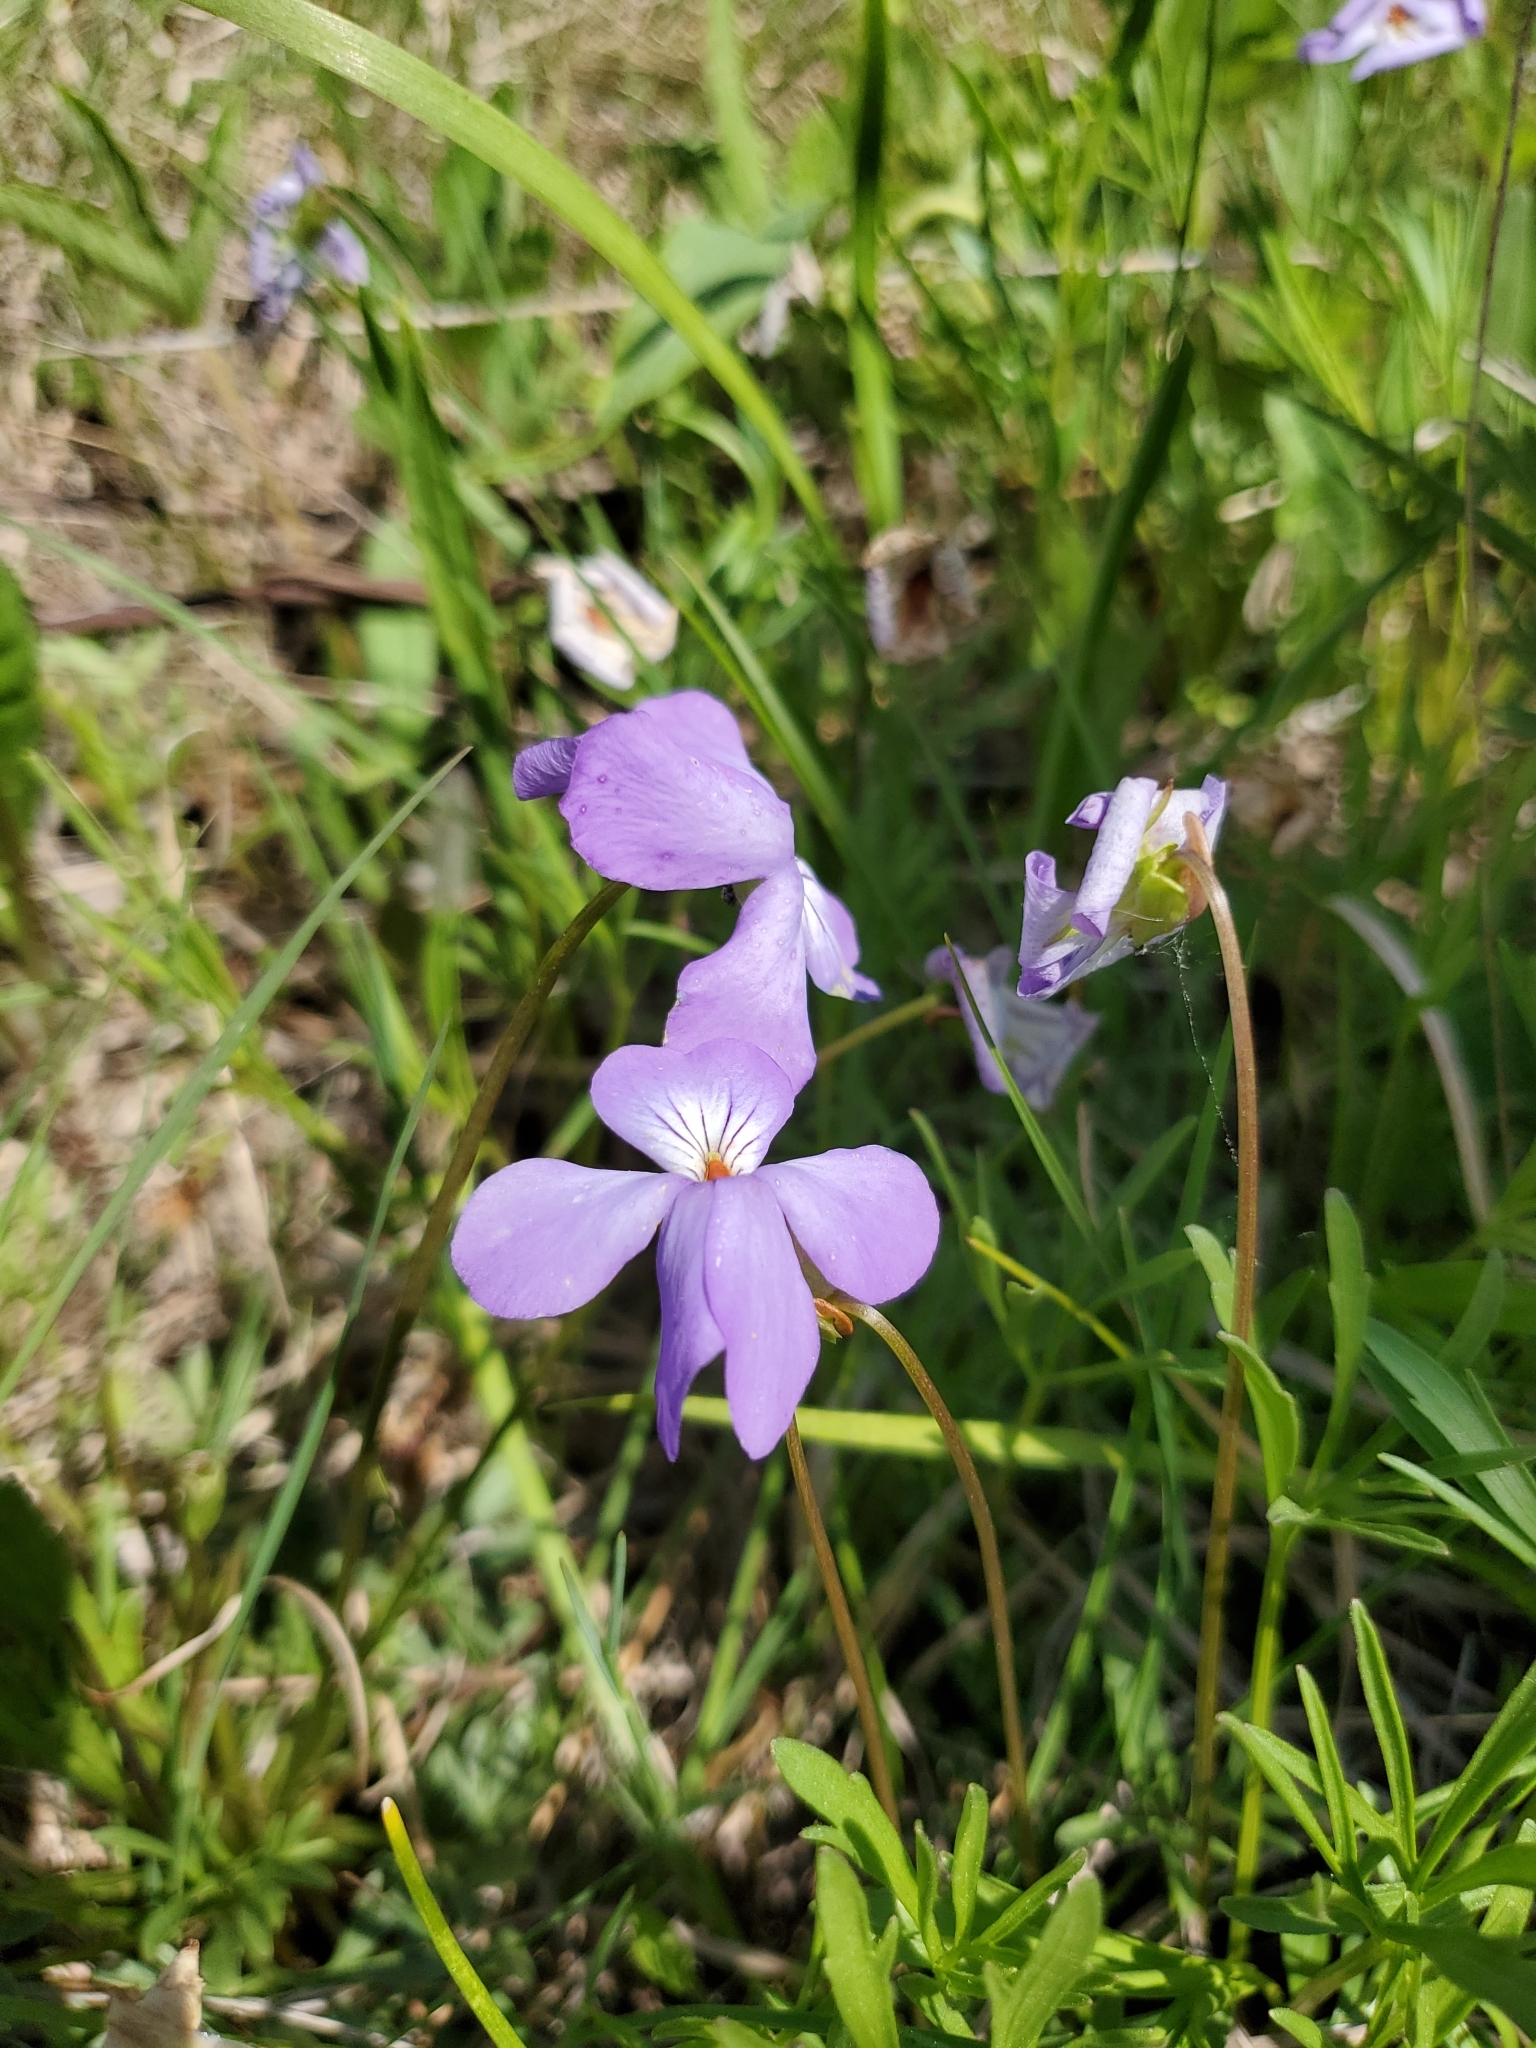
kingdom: Plantae
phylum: Tracheophyta
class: Magnoliopsida
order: Malpighiales
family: Violaceae
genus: Viola
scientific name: Viola pedata
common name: Pansy violet
